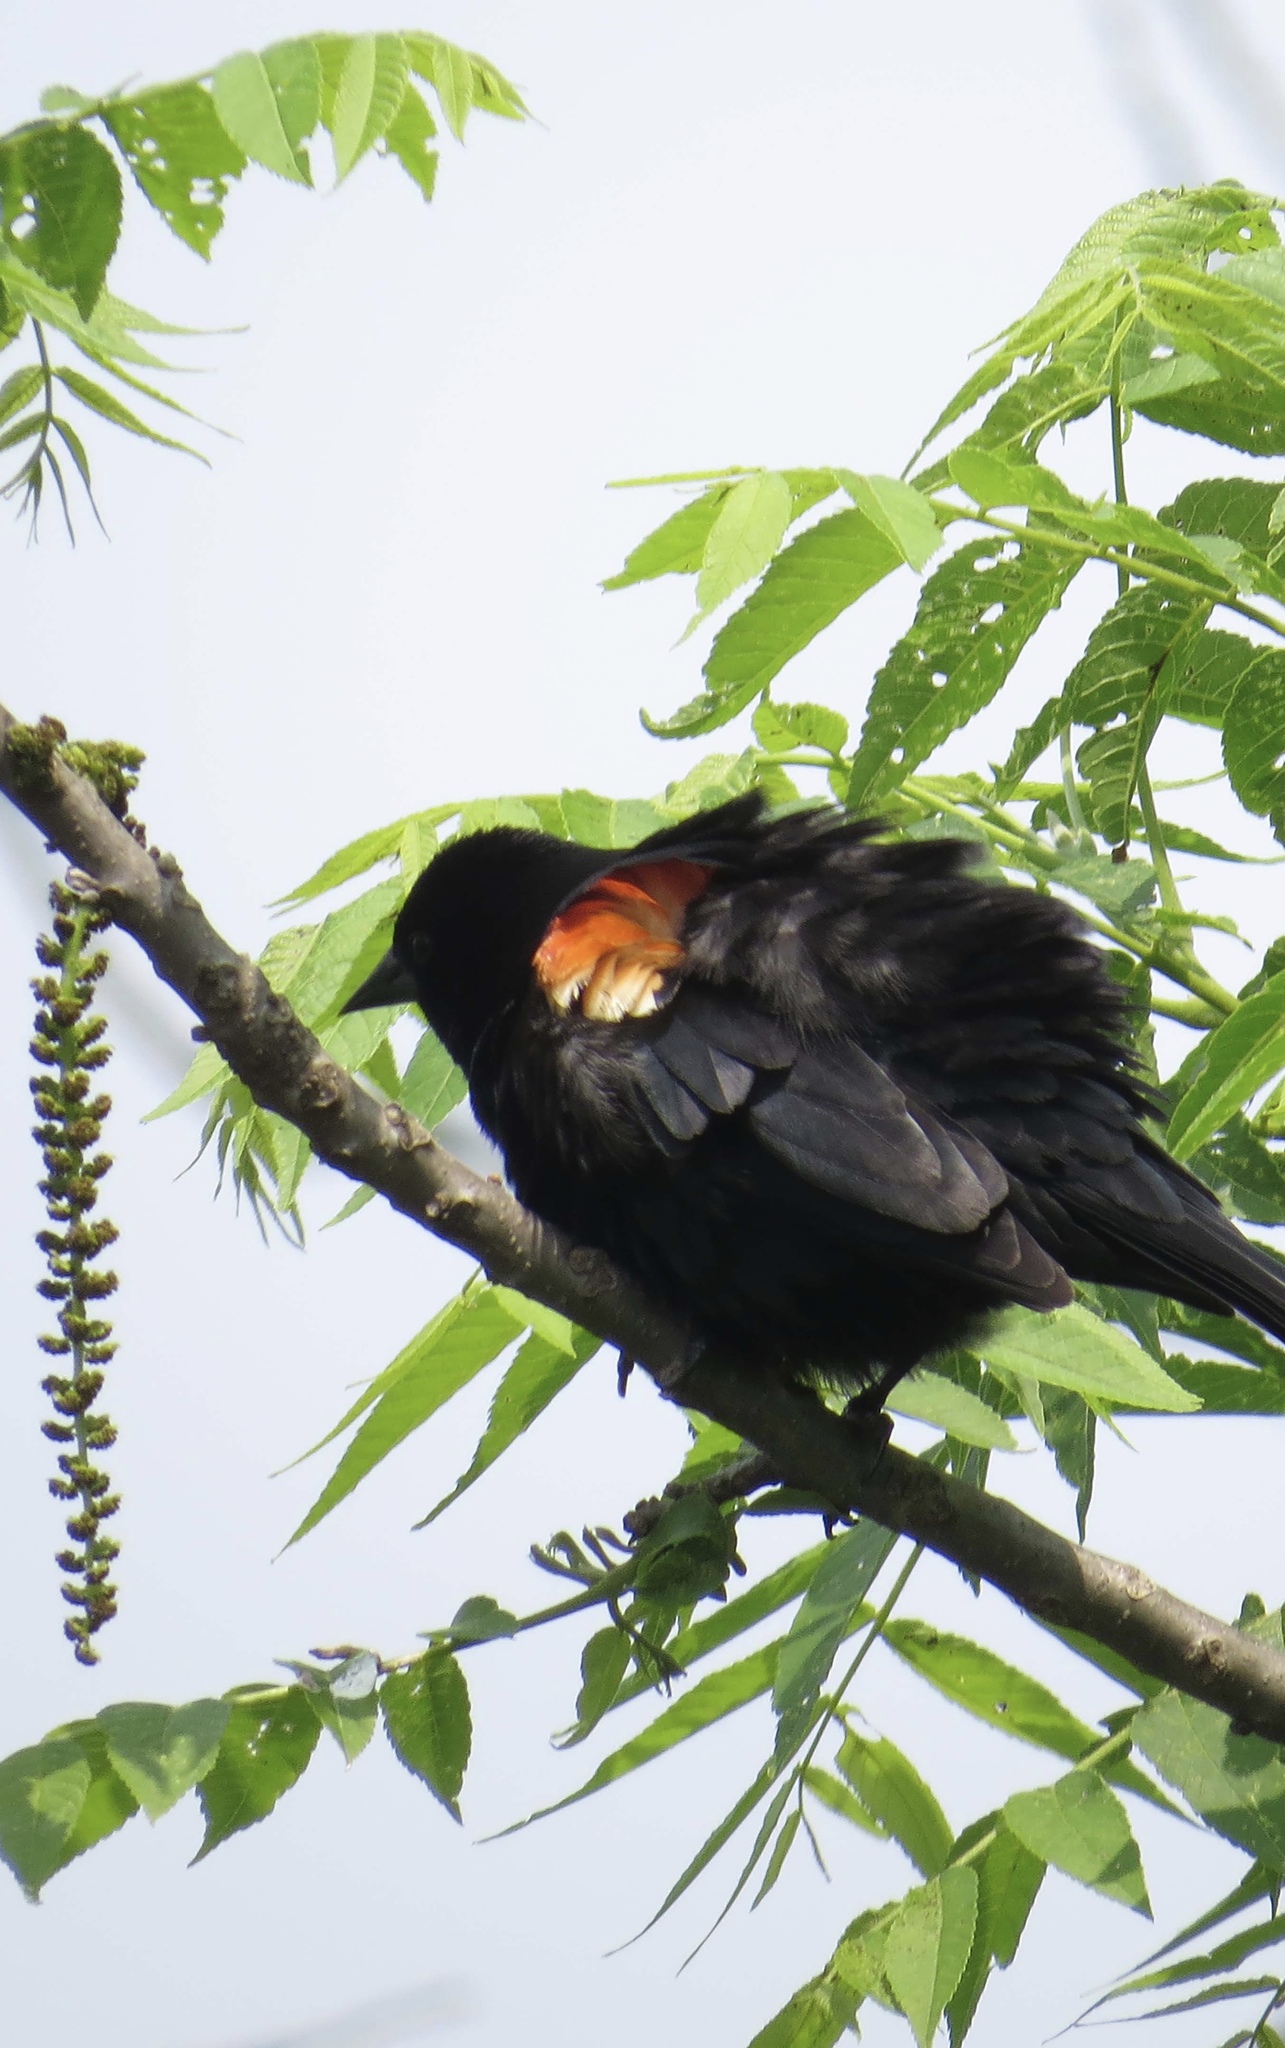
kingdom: Animalia
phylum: Chordata
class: Aves
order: Passeriformes
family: Icteridae
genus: Agelaius
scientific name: Agelaius phoeniceus
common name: Red-winged blackbird
